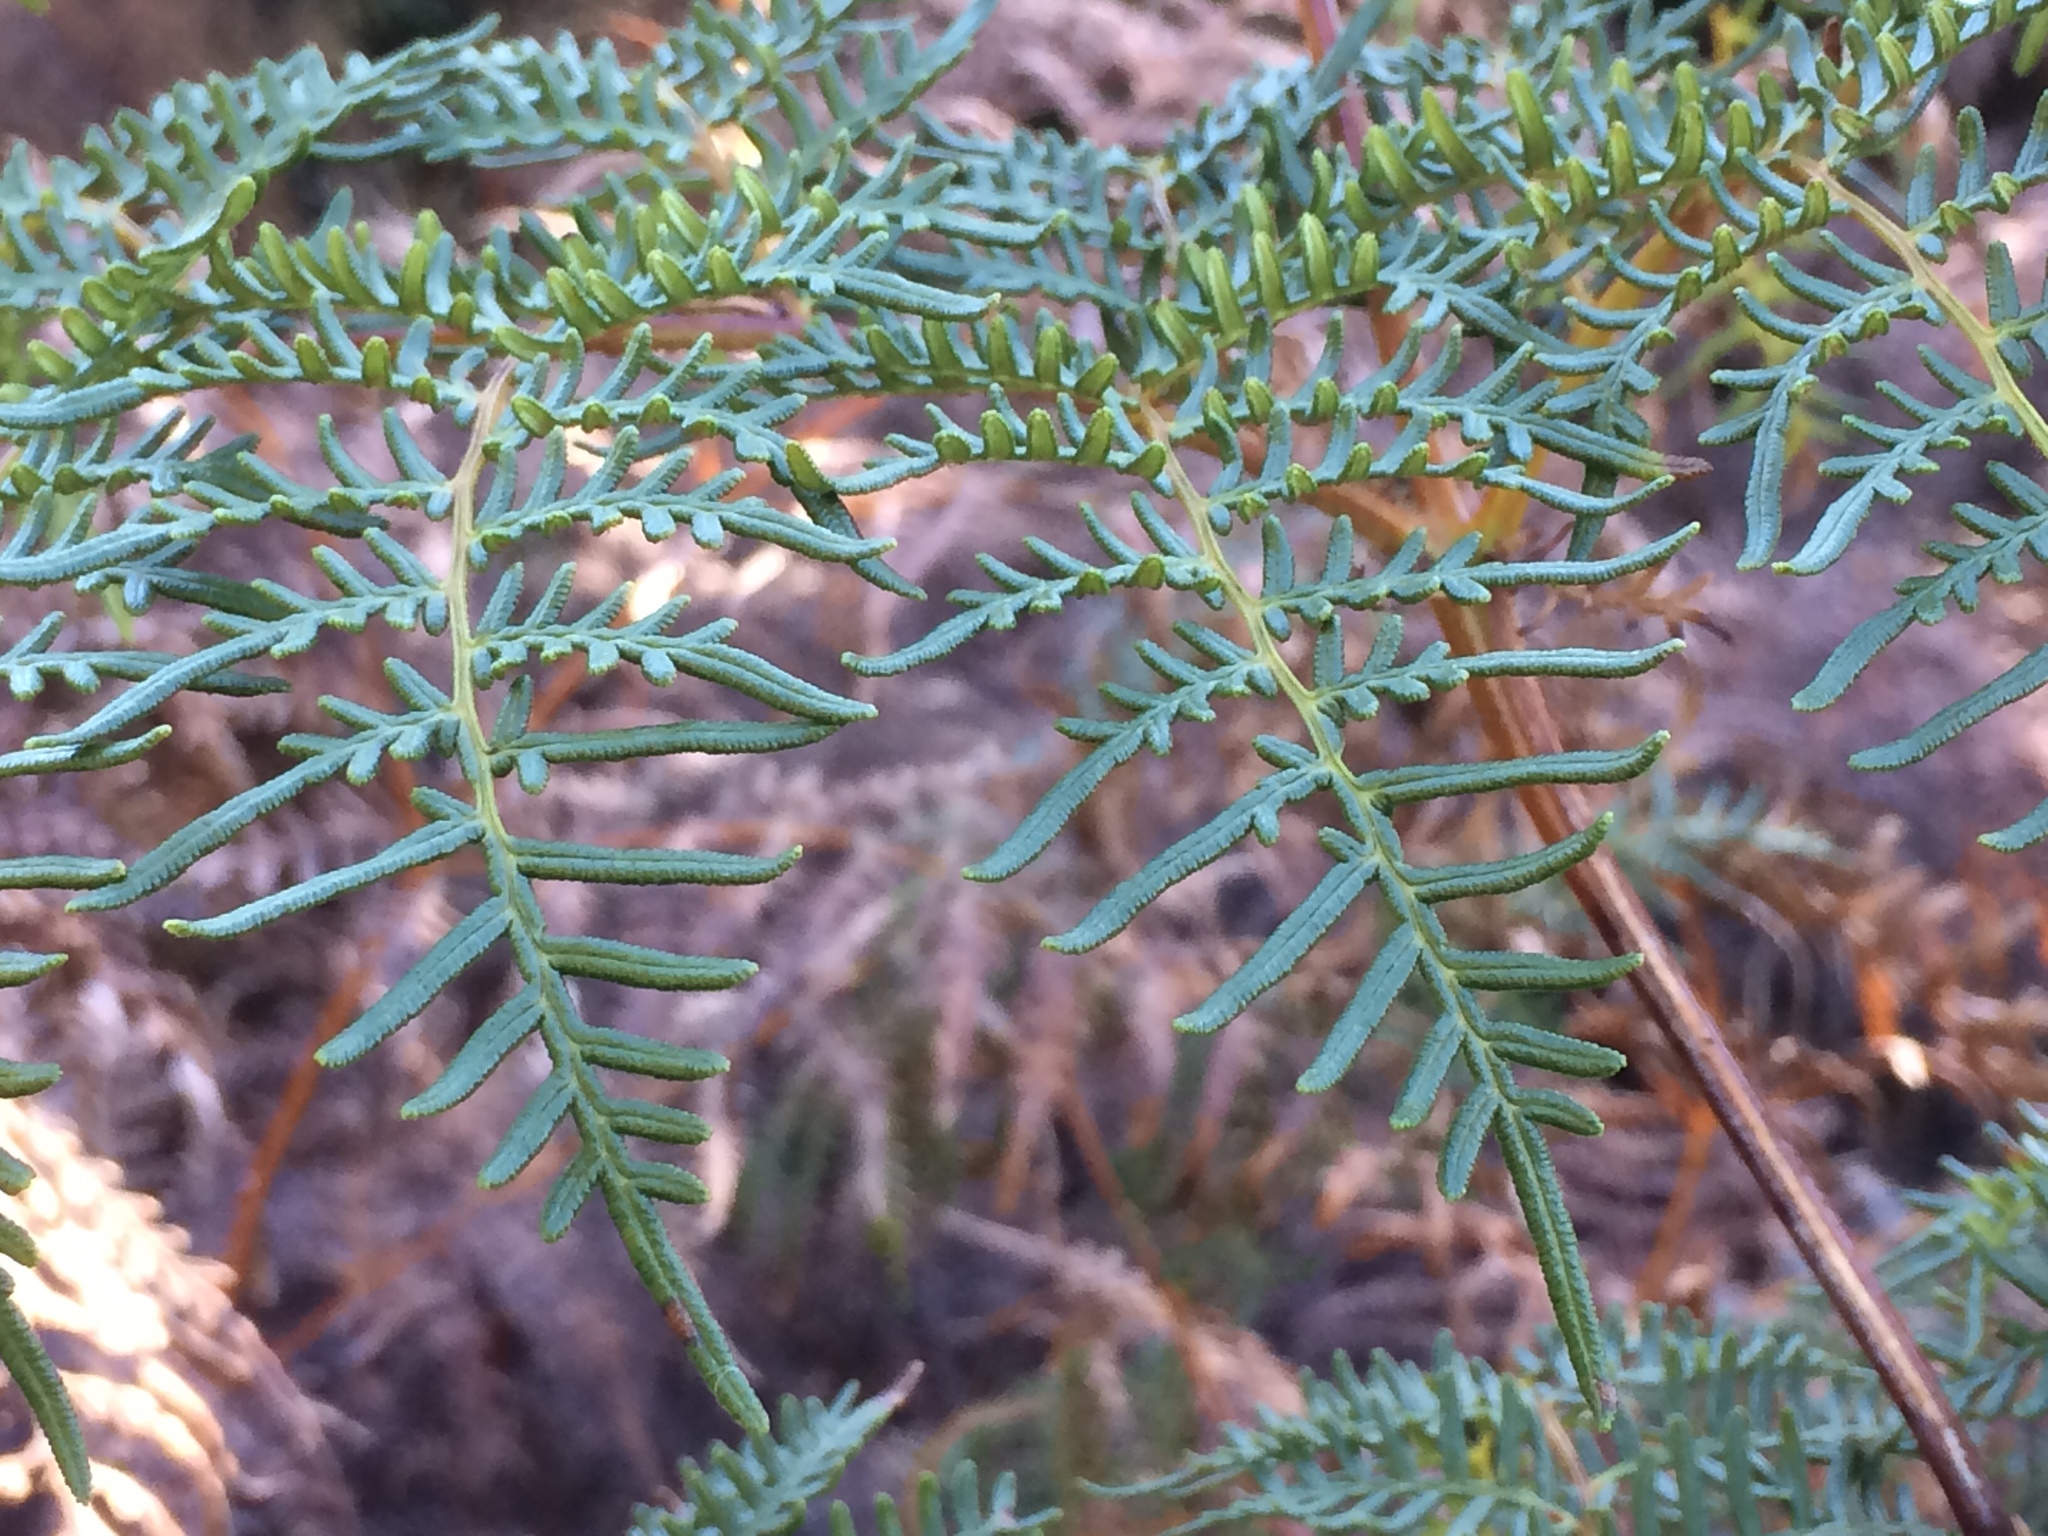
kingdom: Plantae
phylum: Tracheophyta
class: Polypodiopsida
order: Polypodiales
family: Dennstaedtiaceae
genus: Pteridium
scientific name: Pteridium esculentum
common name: Bracken fern
